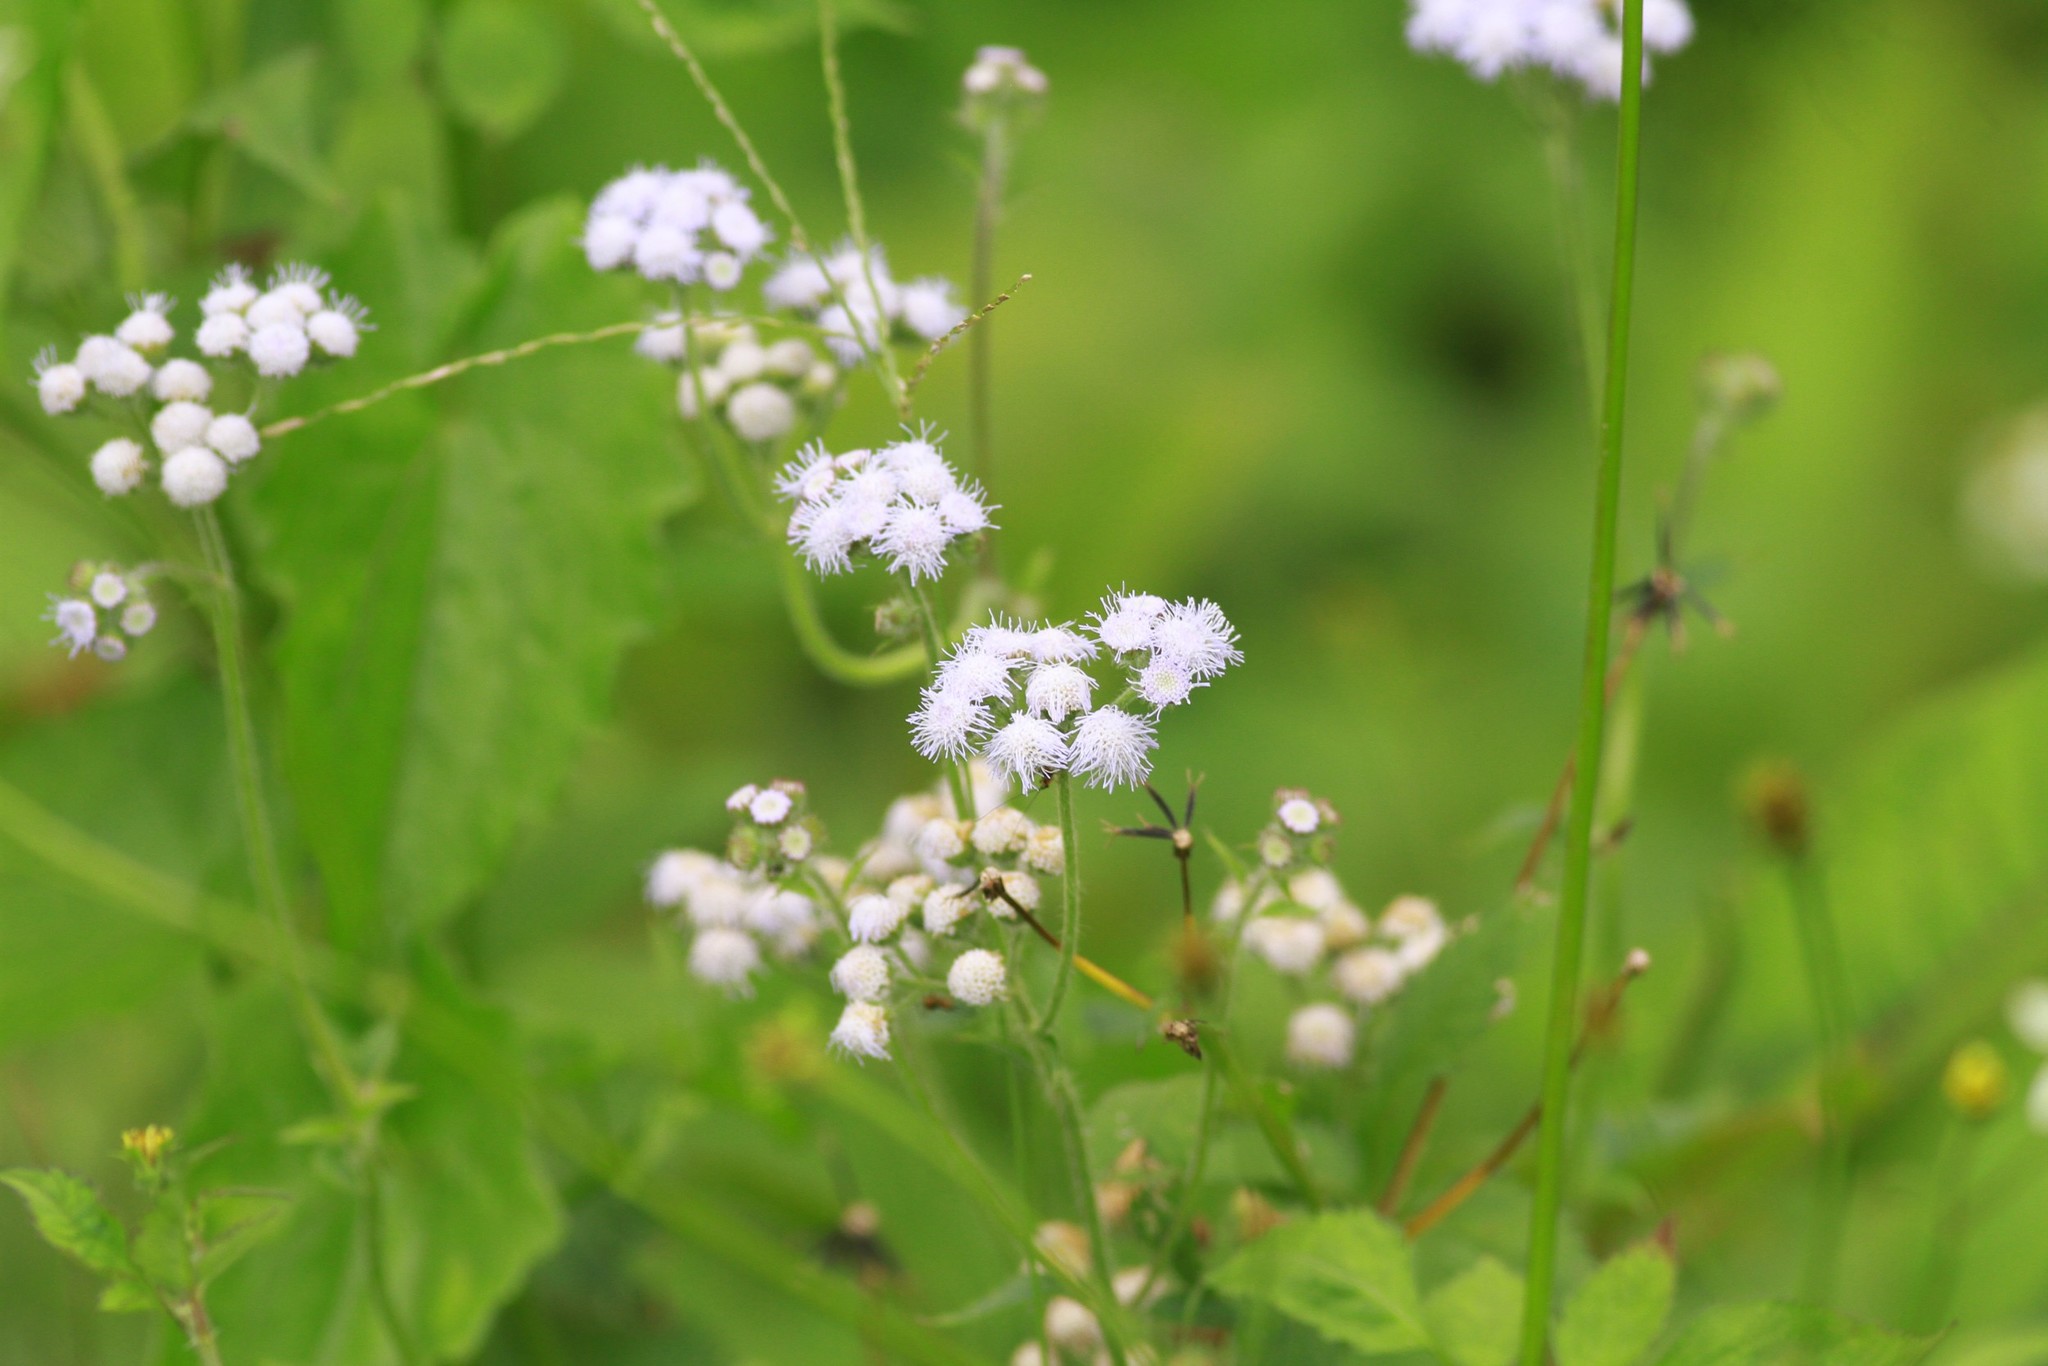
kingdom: Plantae
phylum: Tracheophyta
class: Magnoliopsida
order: Asterales
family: Asteraceae
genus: Ageratum
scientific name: Ageratum conyzoides
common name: Tropical whiteweed
